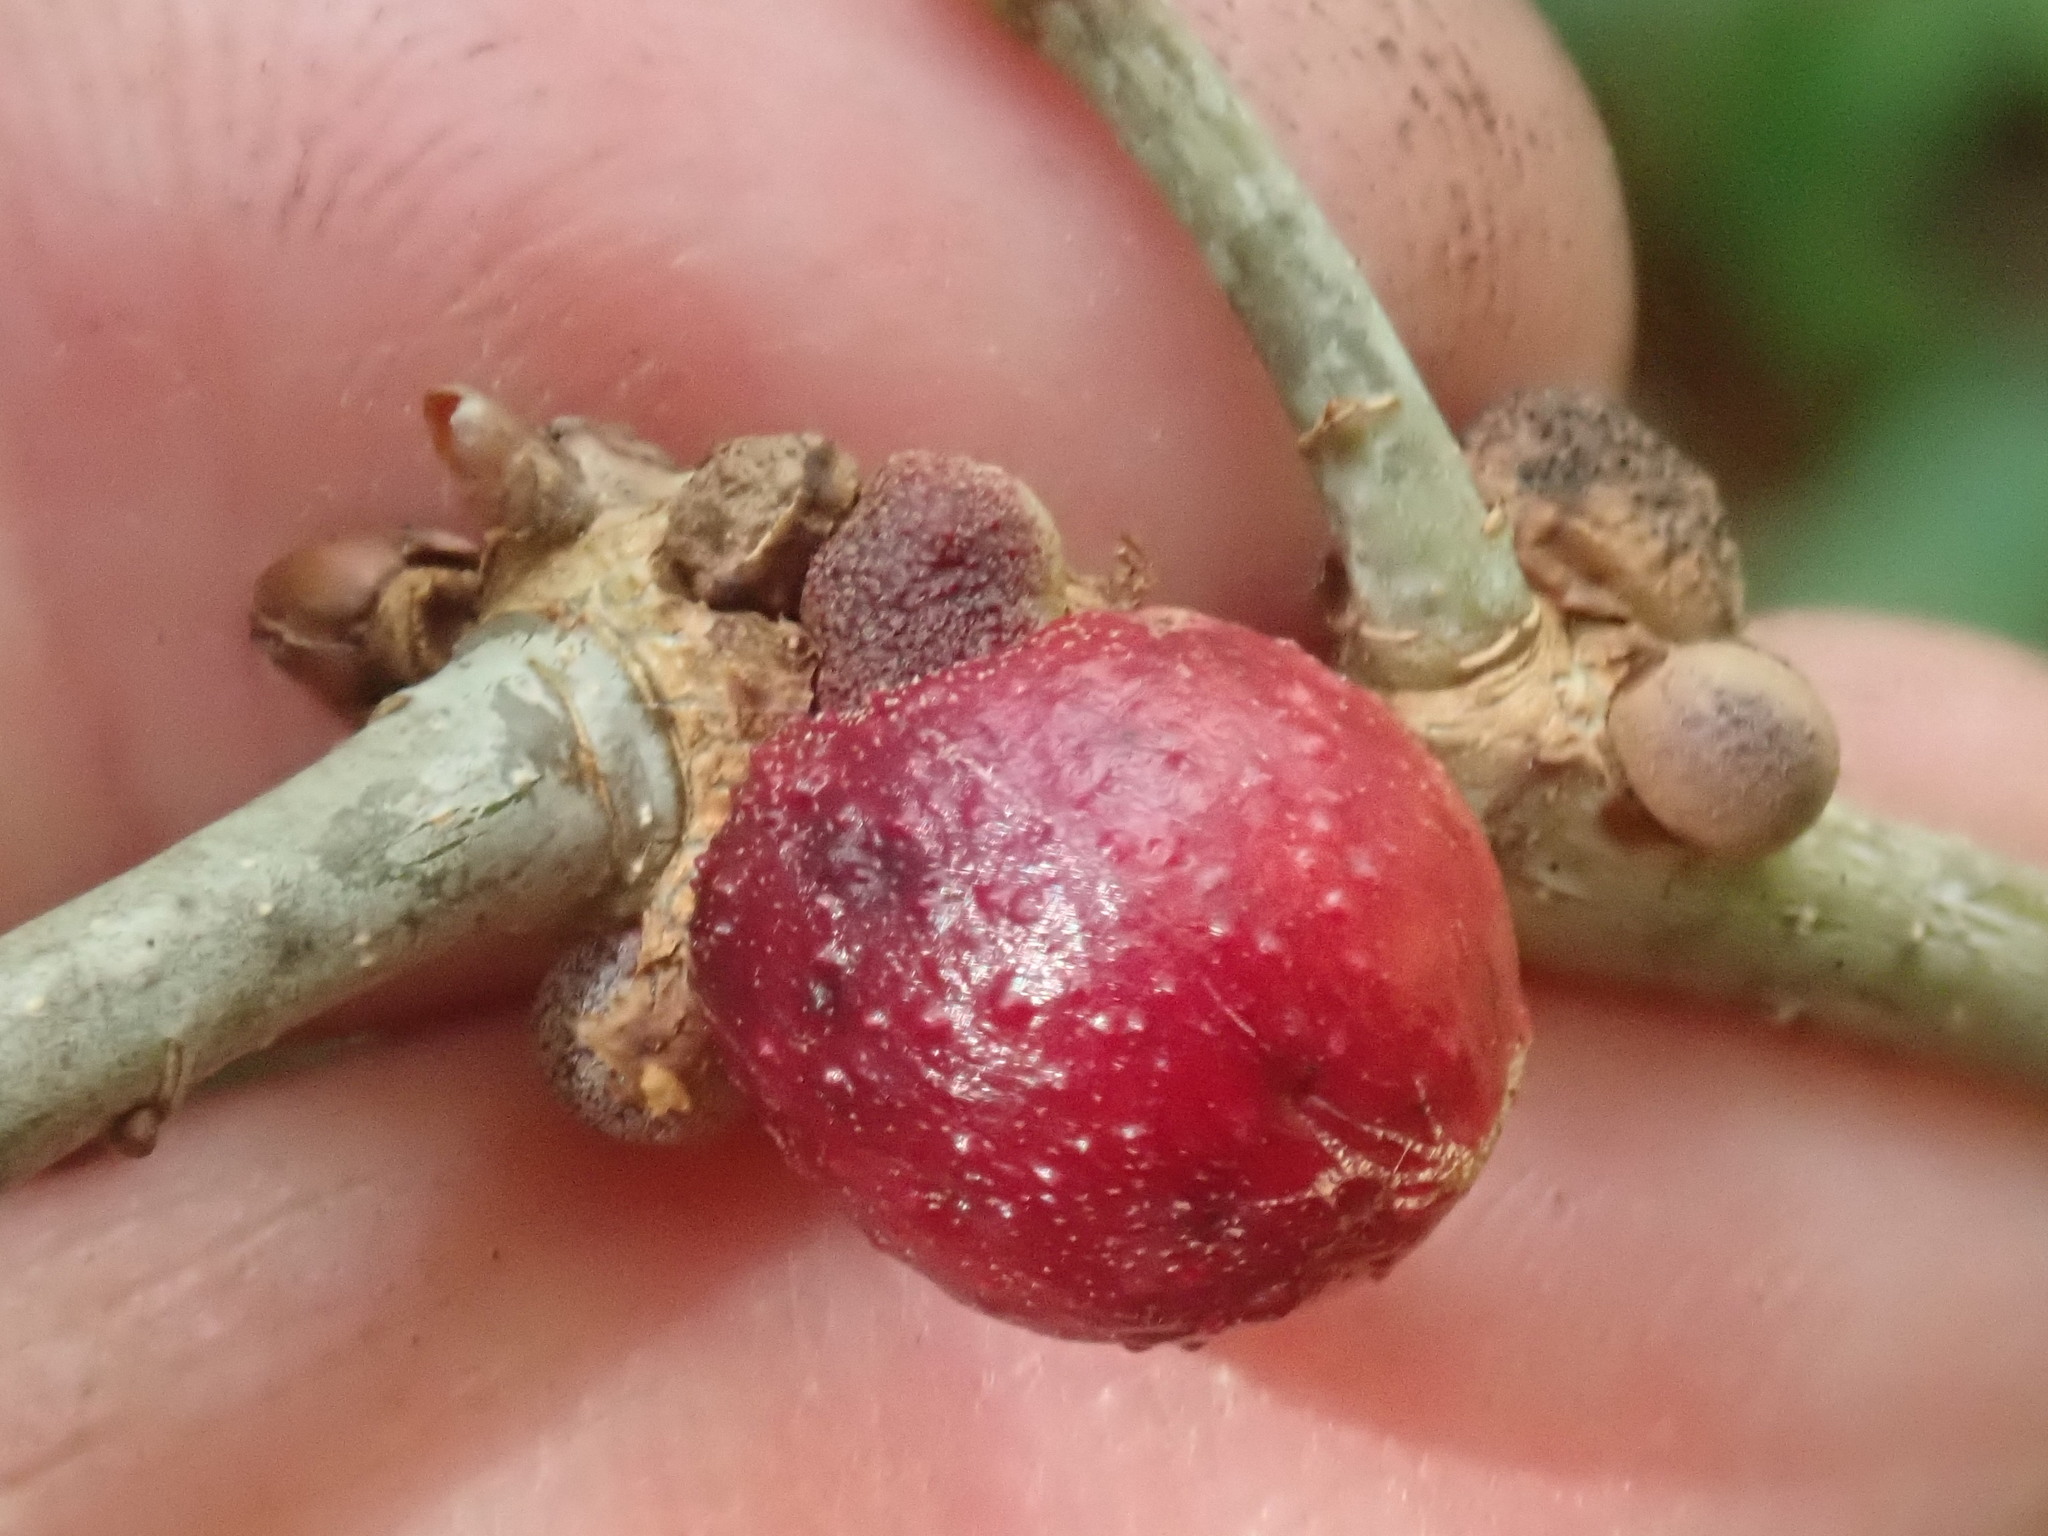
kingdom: Animalia
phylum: Arthropoda
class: Insecta
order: Hymenoptera
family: Cynipidae
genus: Disholcaspis
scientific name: Disholcaspis quercusglobulus
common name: Round bullet gall wasp
